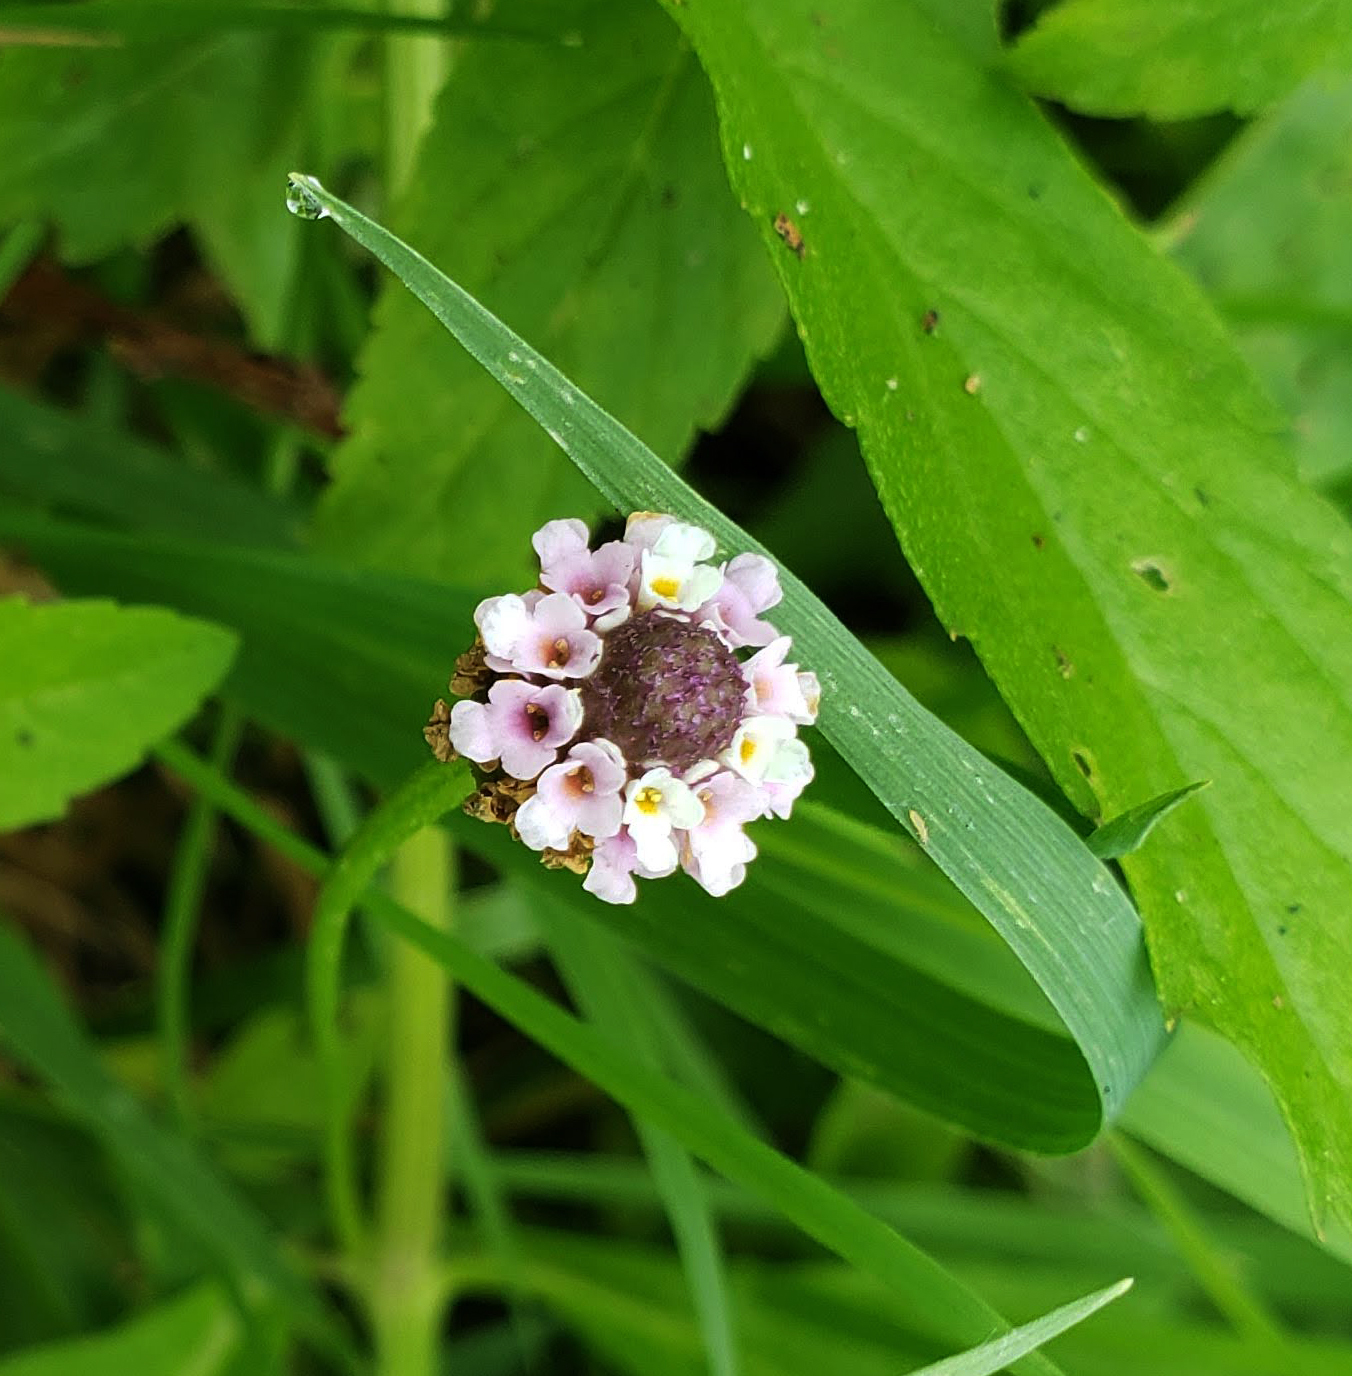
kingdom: Plantae
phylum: Tracheophyta
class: Magnoliopsida
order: Lamiales
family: Verbenaceae
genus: Phyla
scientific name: Phyla lanceolata
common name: Northern fogfruit
